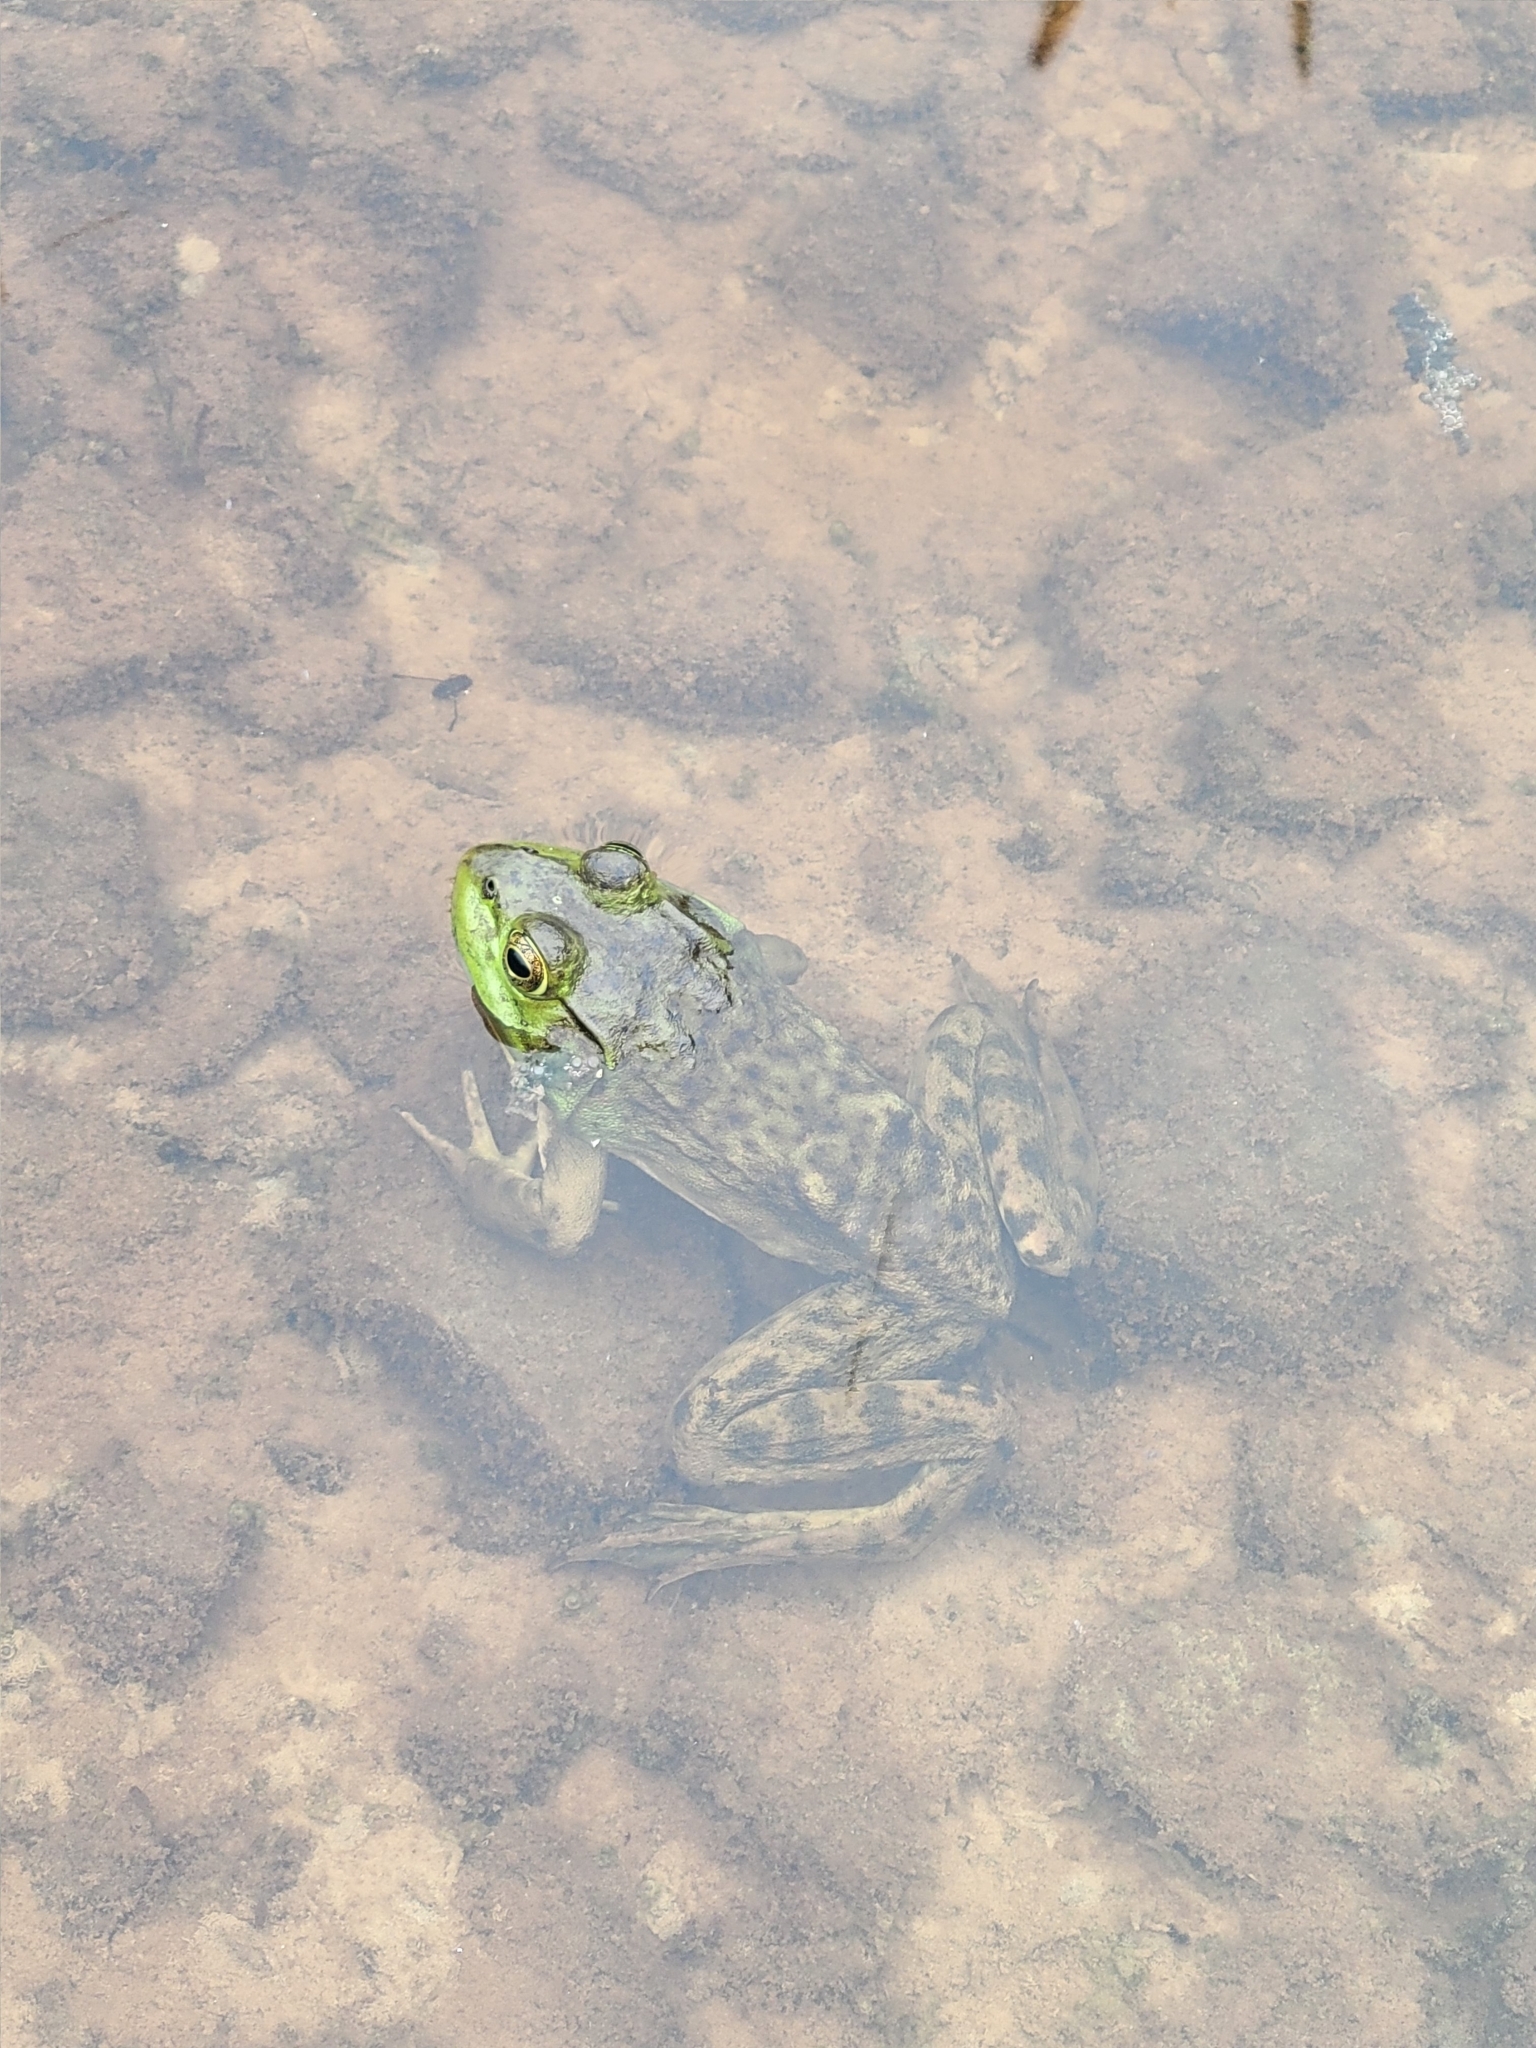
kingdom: Animalia
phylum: Chordata
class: Amphibia
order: Anura
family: Ranidae
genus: Lithobates
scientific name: Lithobates catesbeianus
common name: American bullfrog
